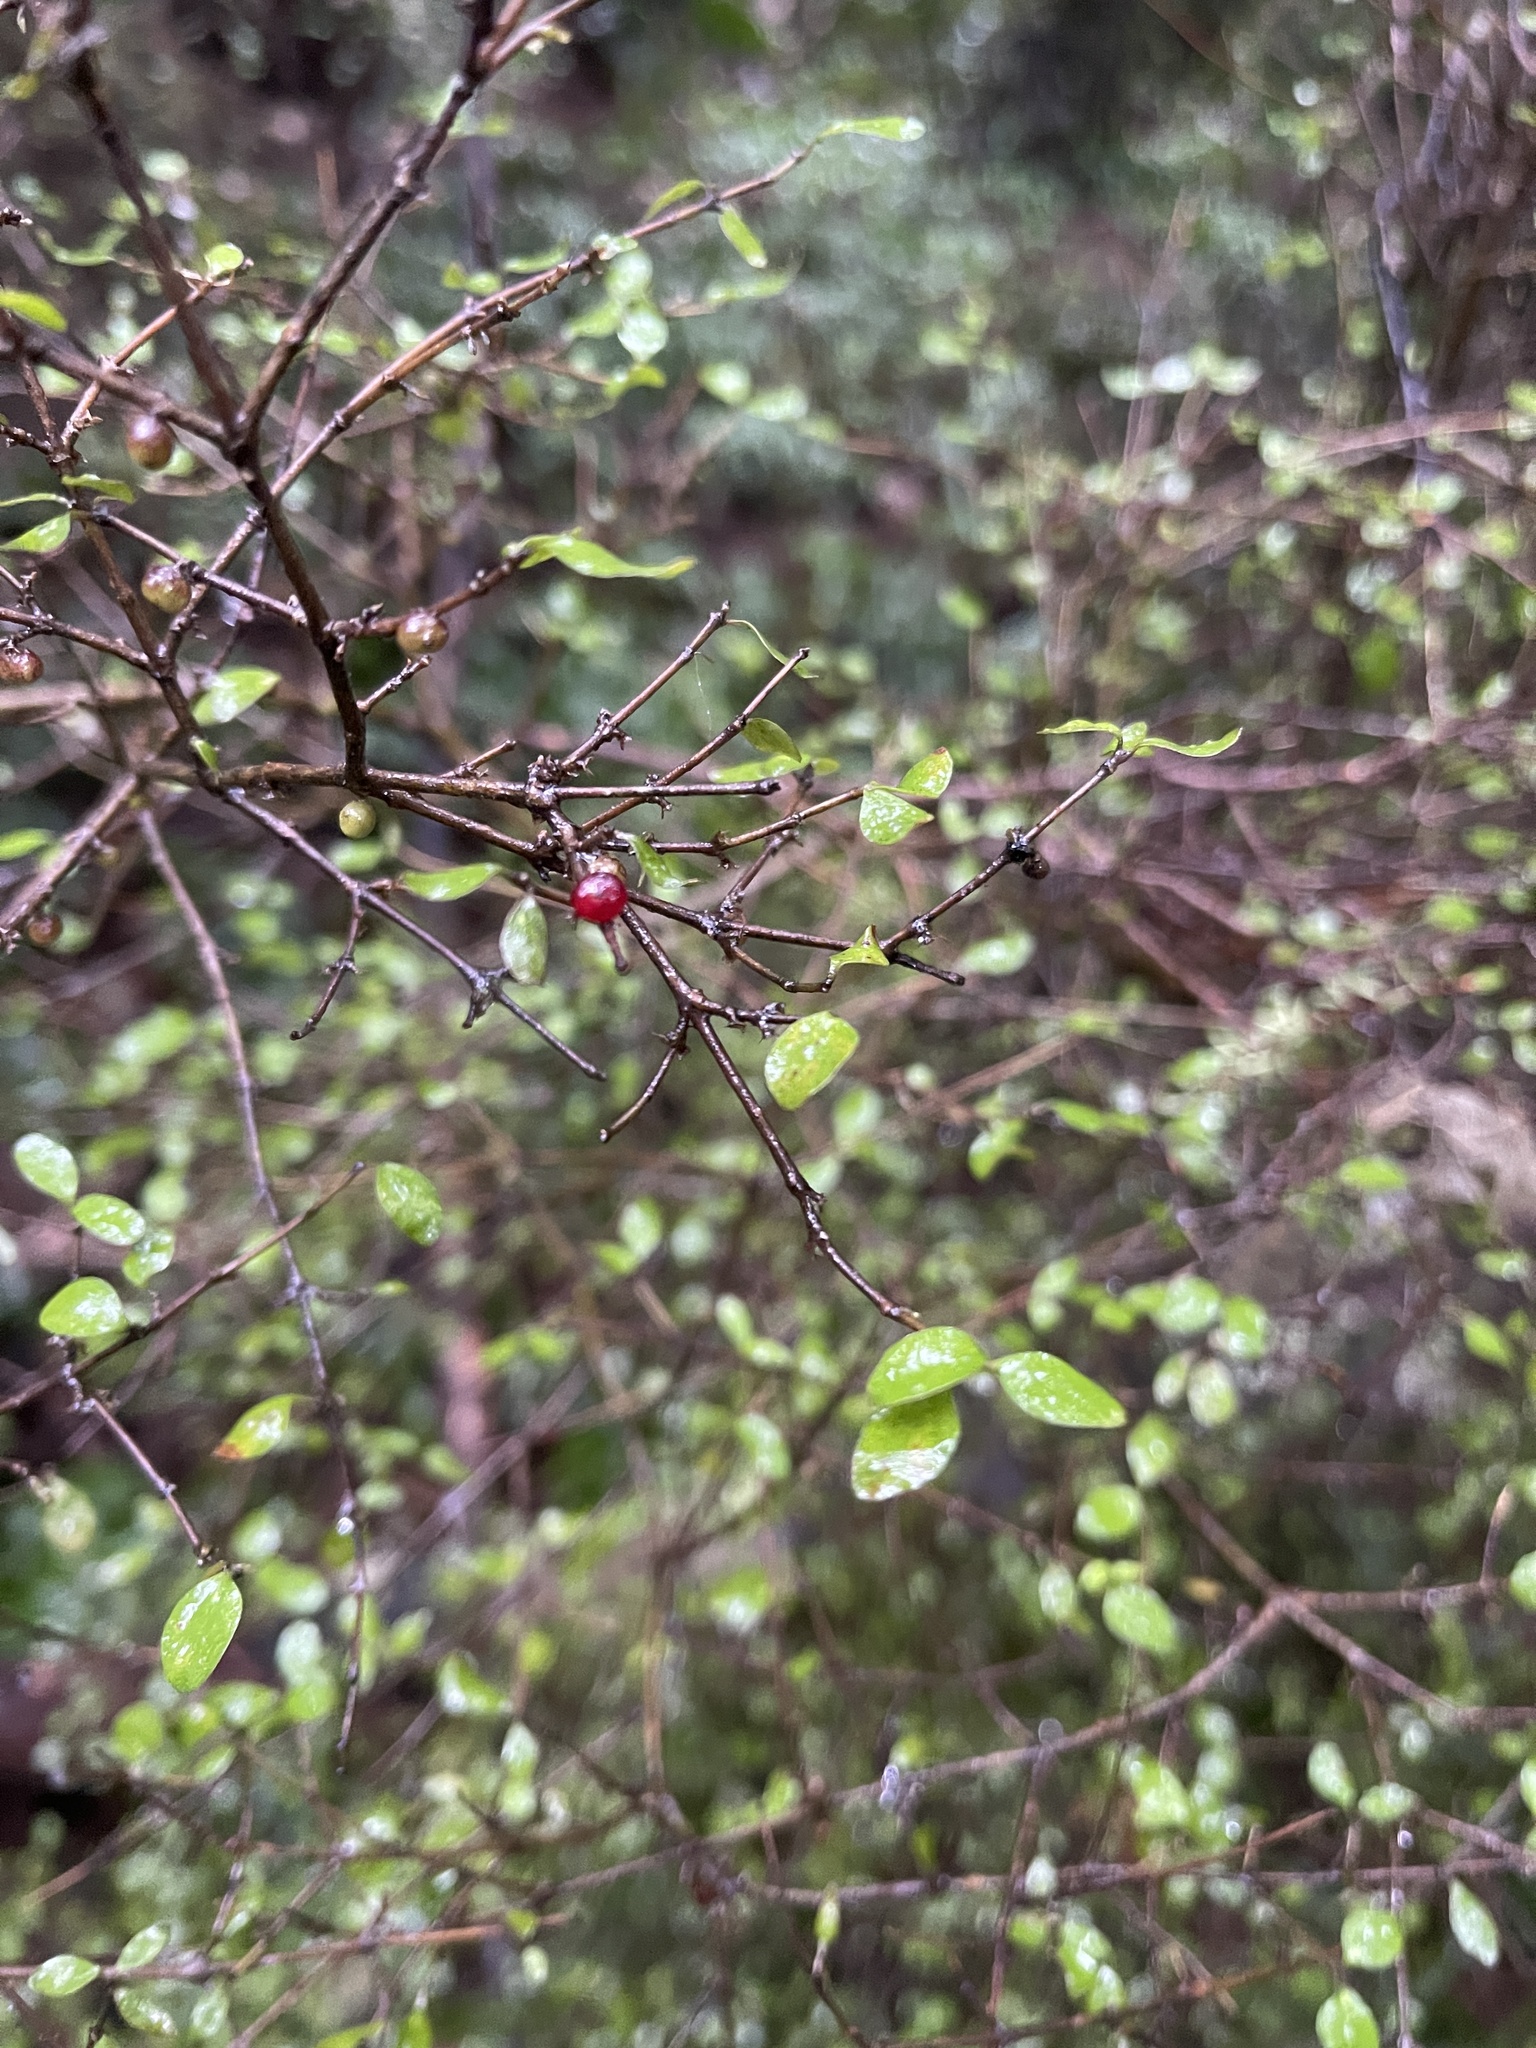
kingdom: Plantae
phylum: Tracheophyta
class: Magnoliopsida
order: Gentianales
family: Rubiaceae
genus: Coprosma
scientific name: Coprosma rhamnoides
